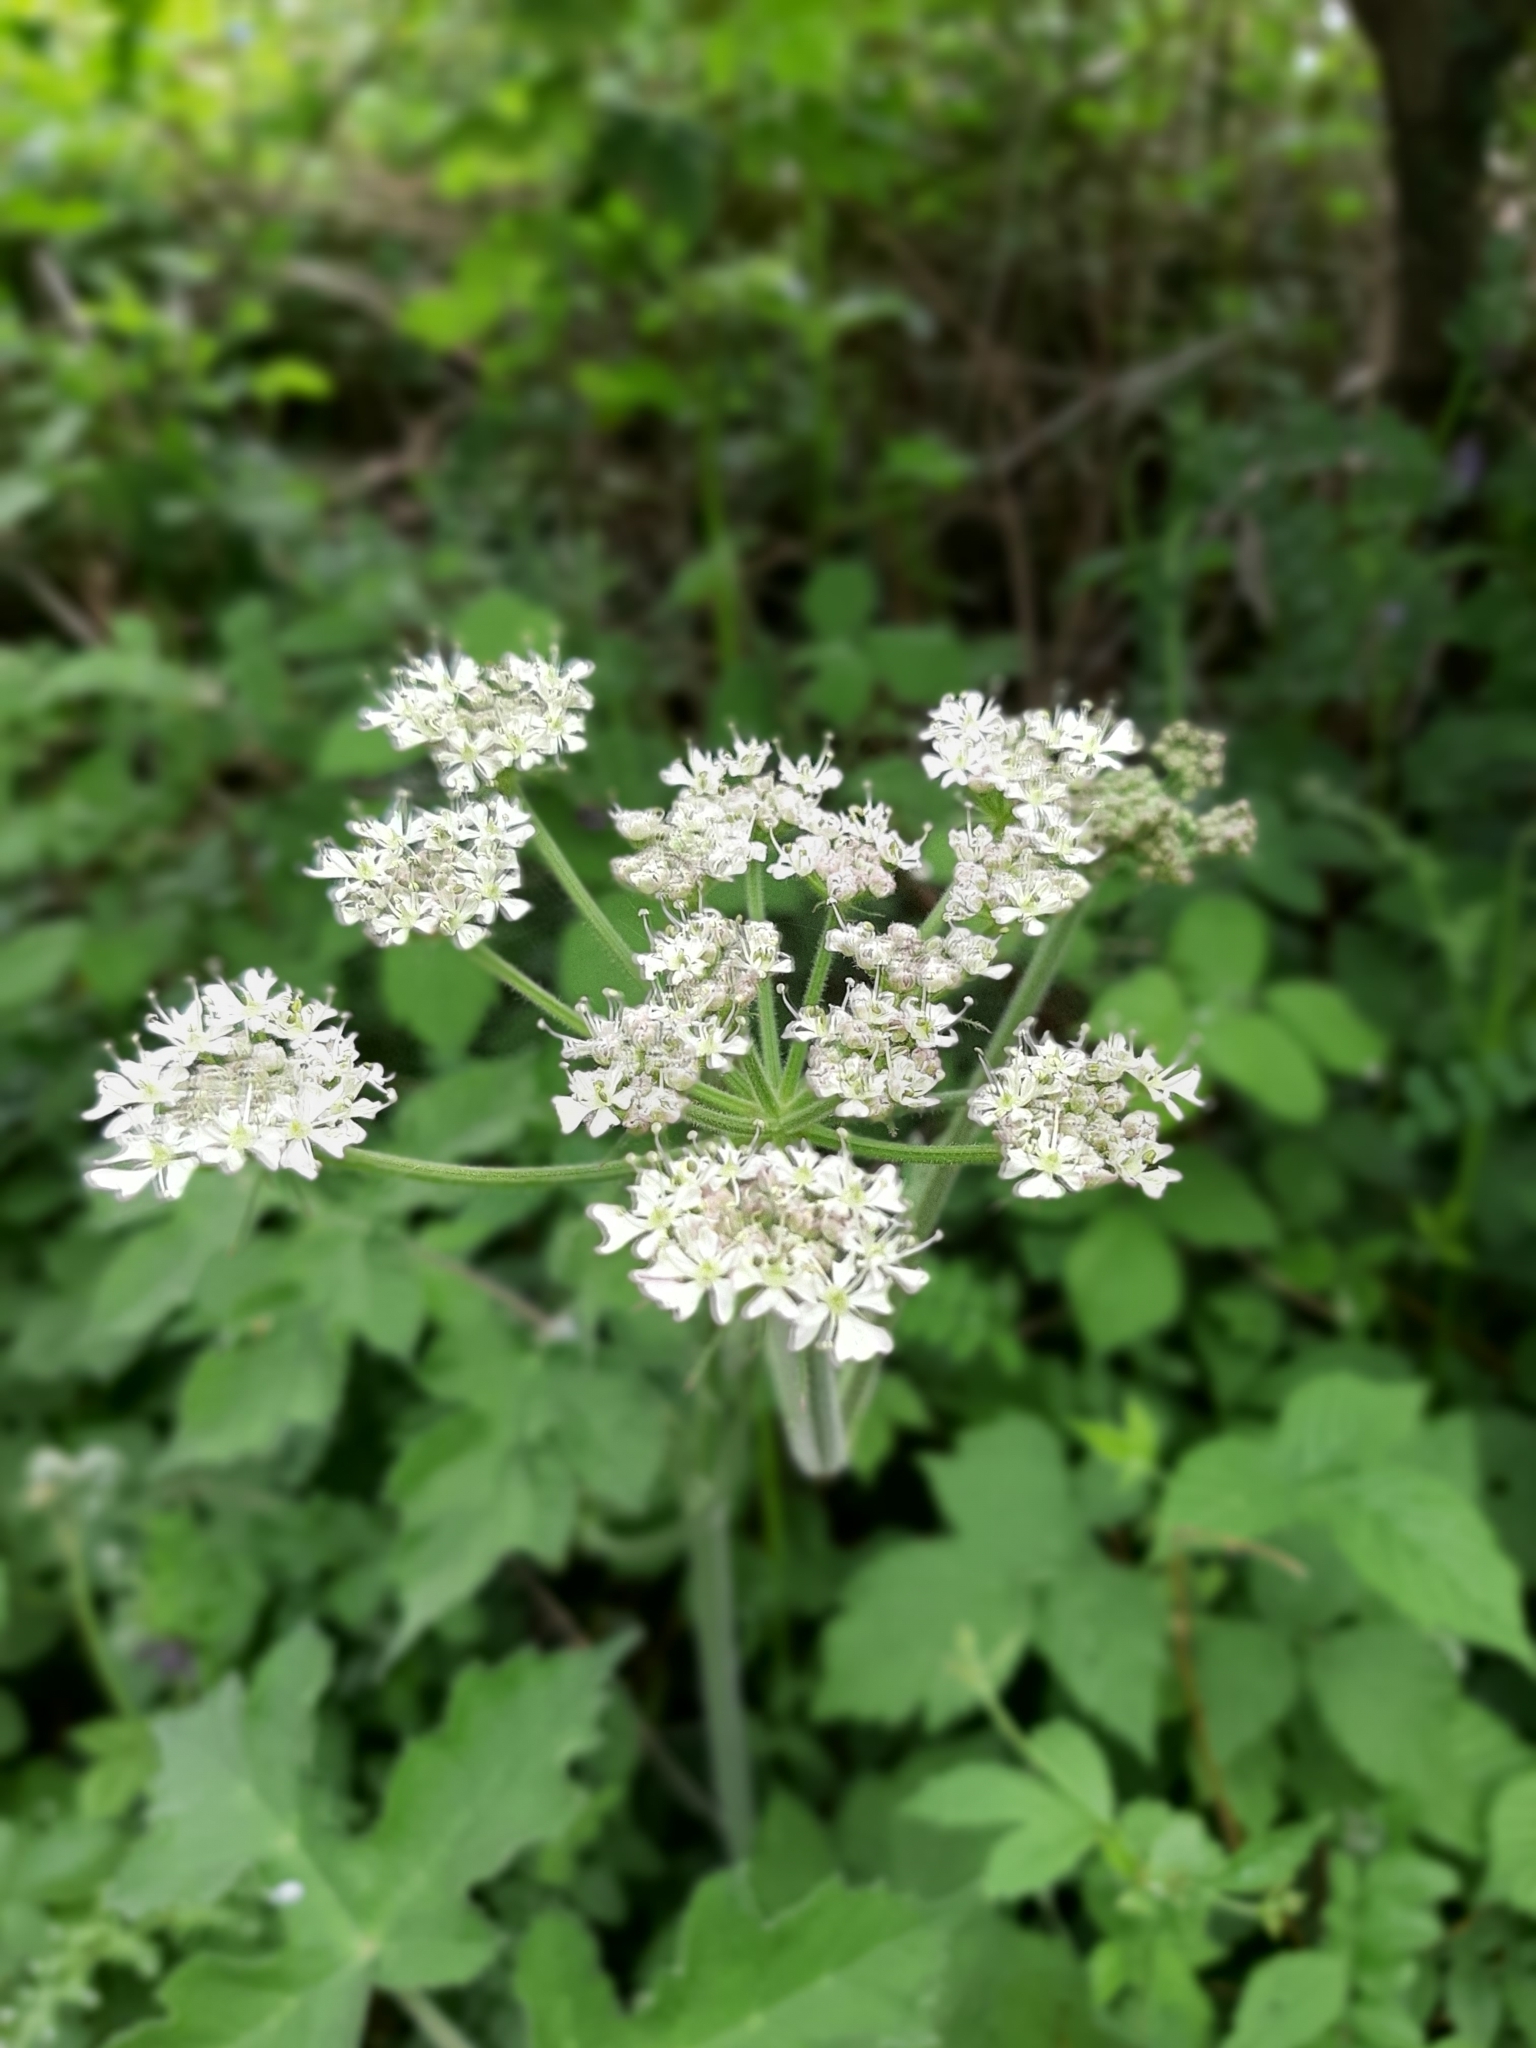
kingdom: Plantae
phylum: Tracheophyta
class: Magnoliopsida
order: Apiales
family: Apiaceae
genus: Heracleum
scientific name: Heracleum sphondylium
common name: Hogweed
